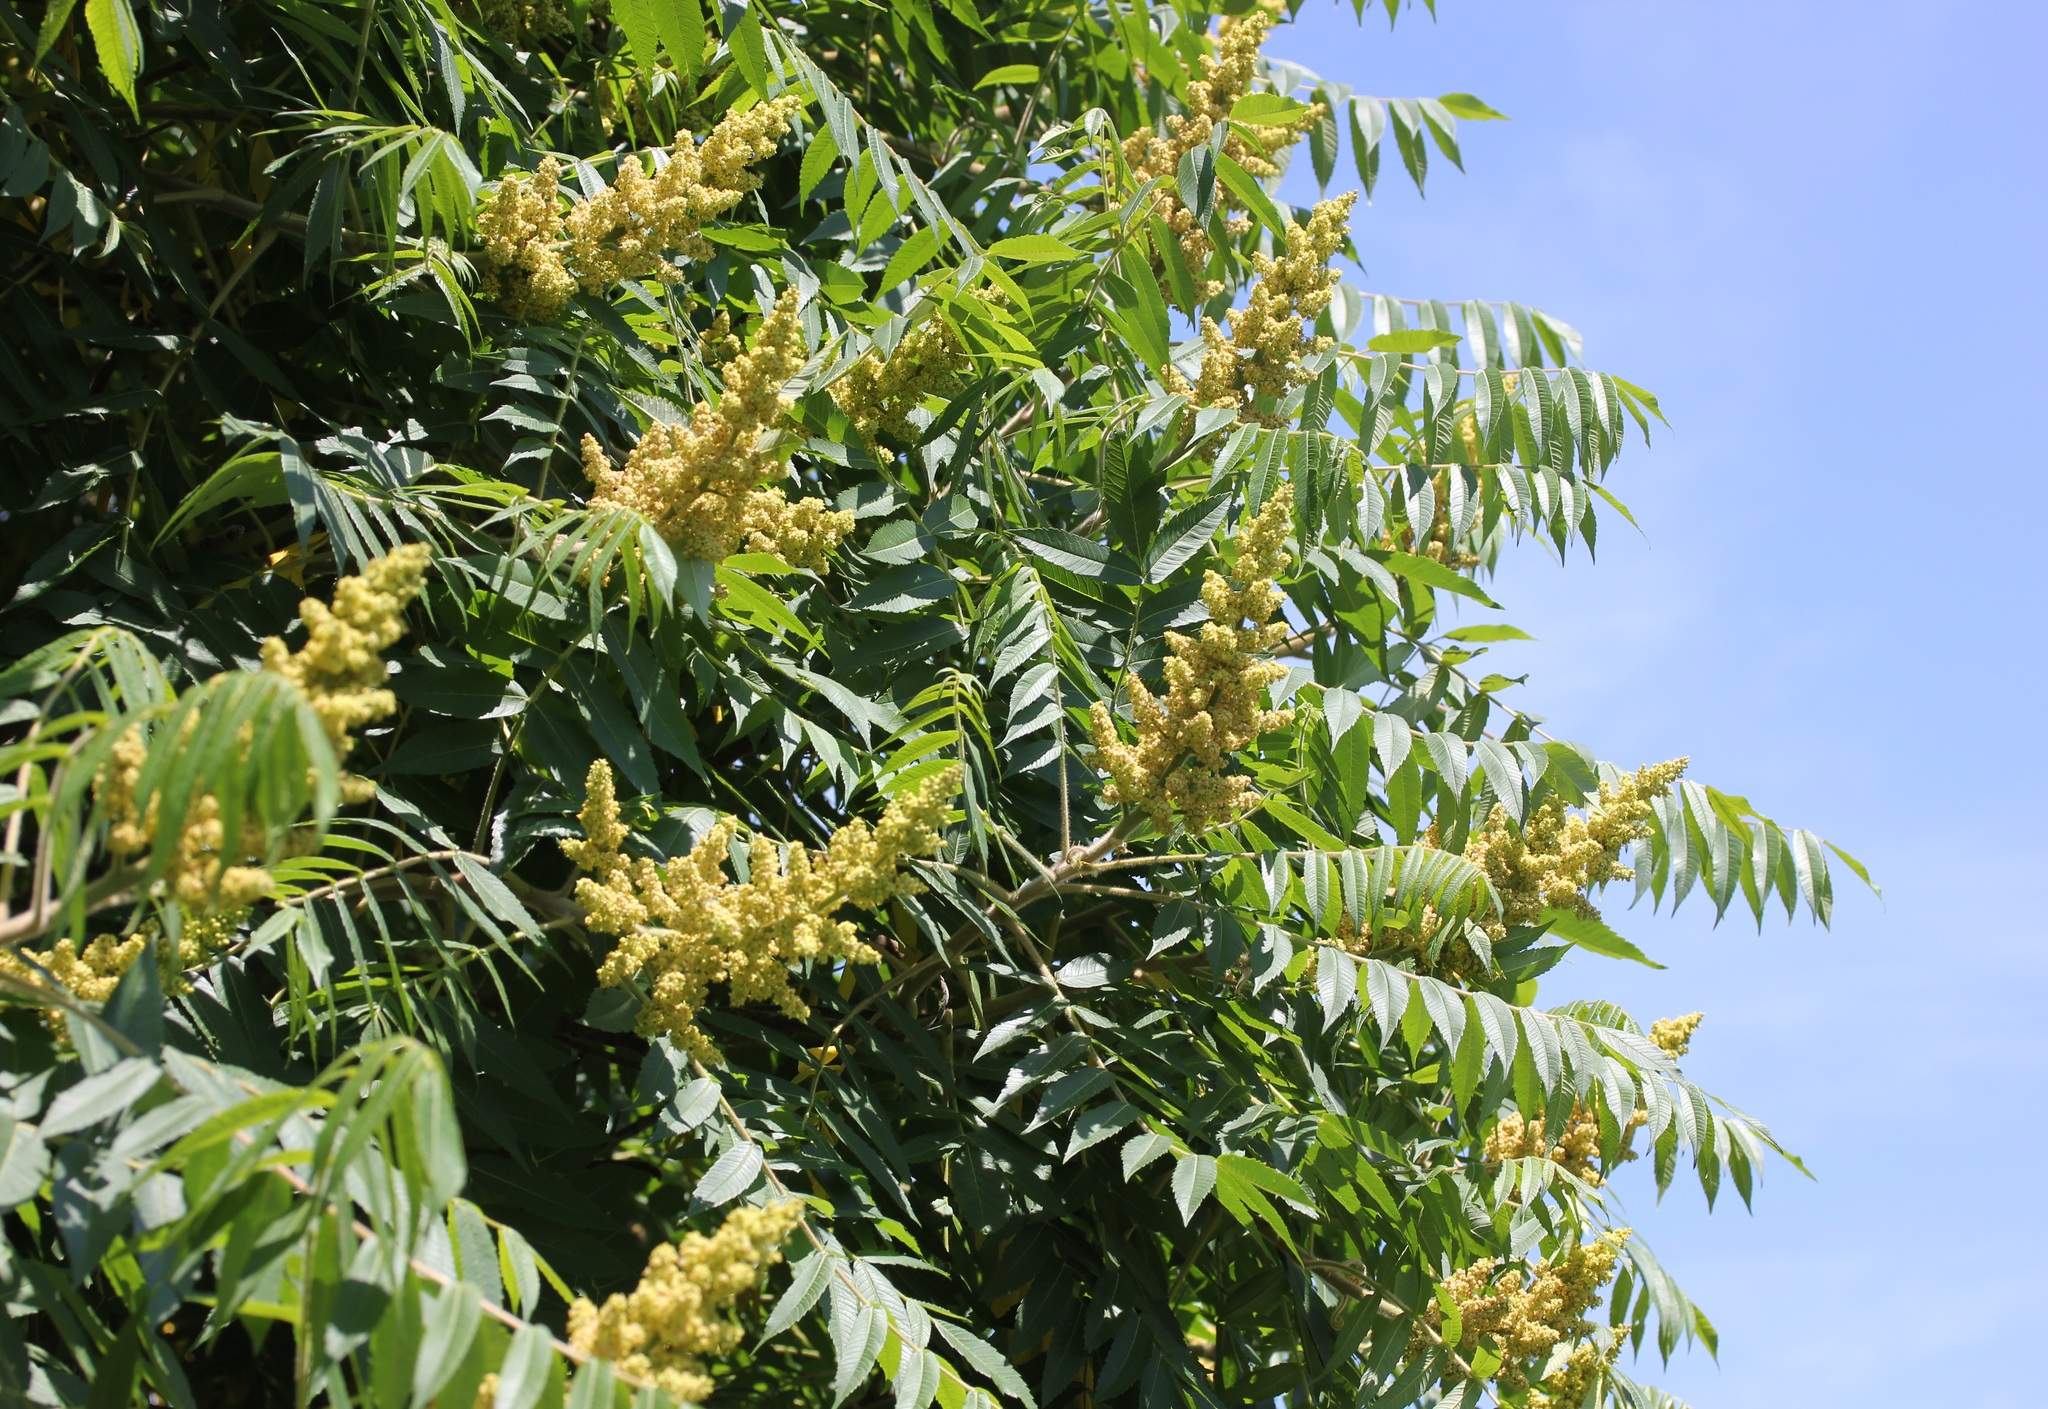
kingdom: Plantae
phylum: Tracheophyta
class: Magnoliopsida
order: Sapindales
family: Anacardiaceae
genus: Rhus
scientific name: Rhus typhina
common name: Staghorn sumac
